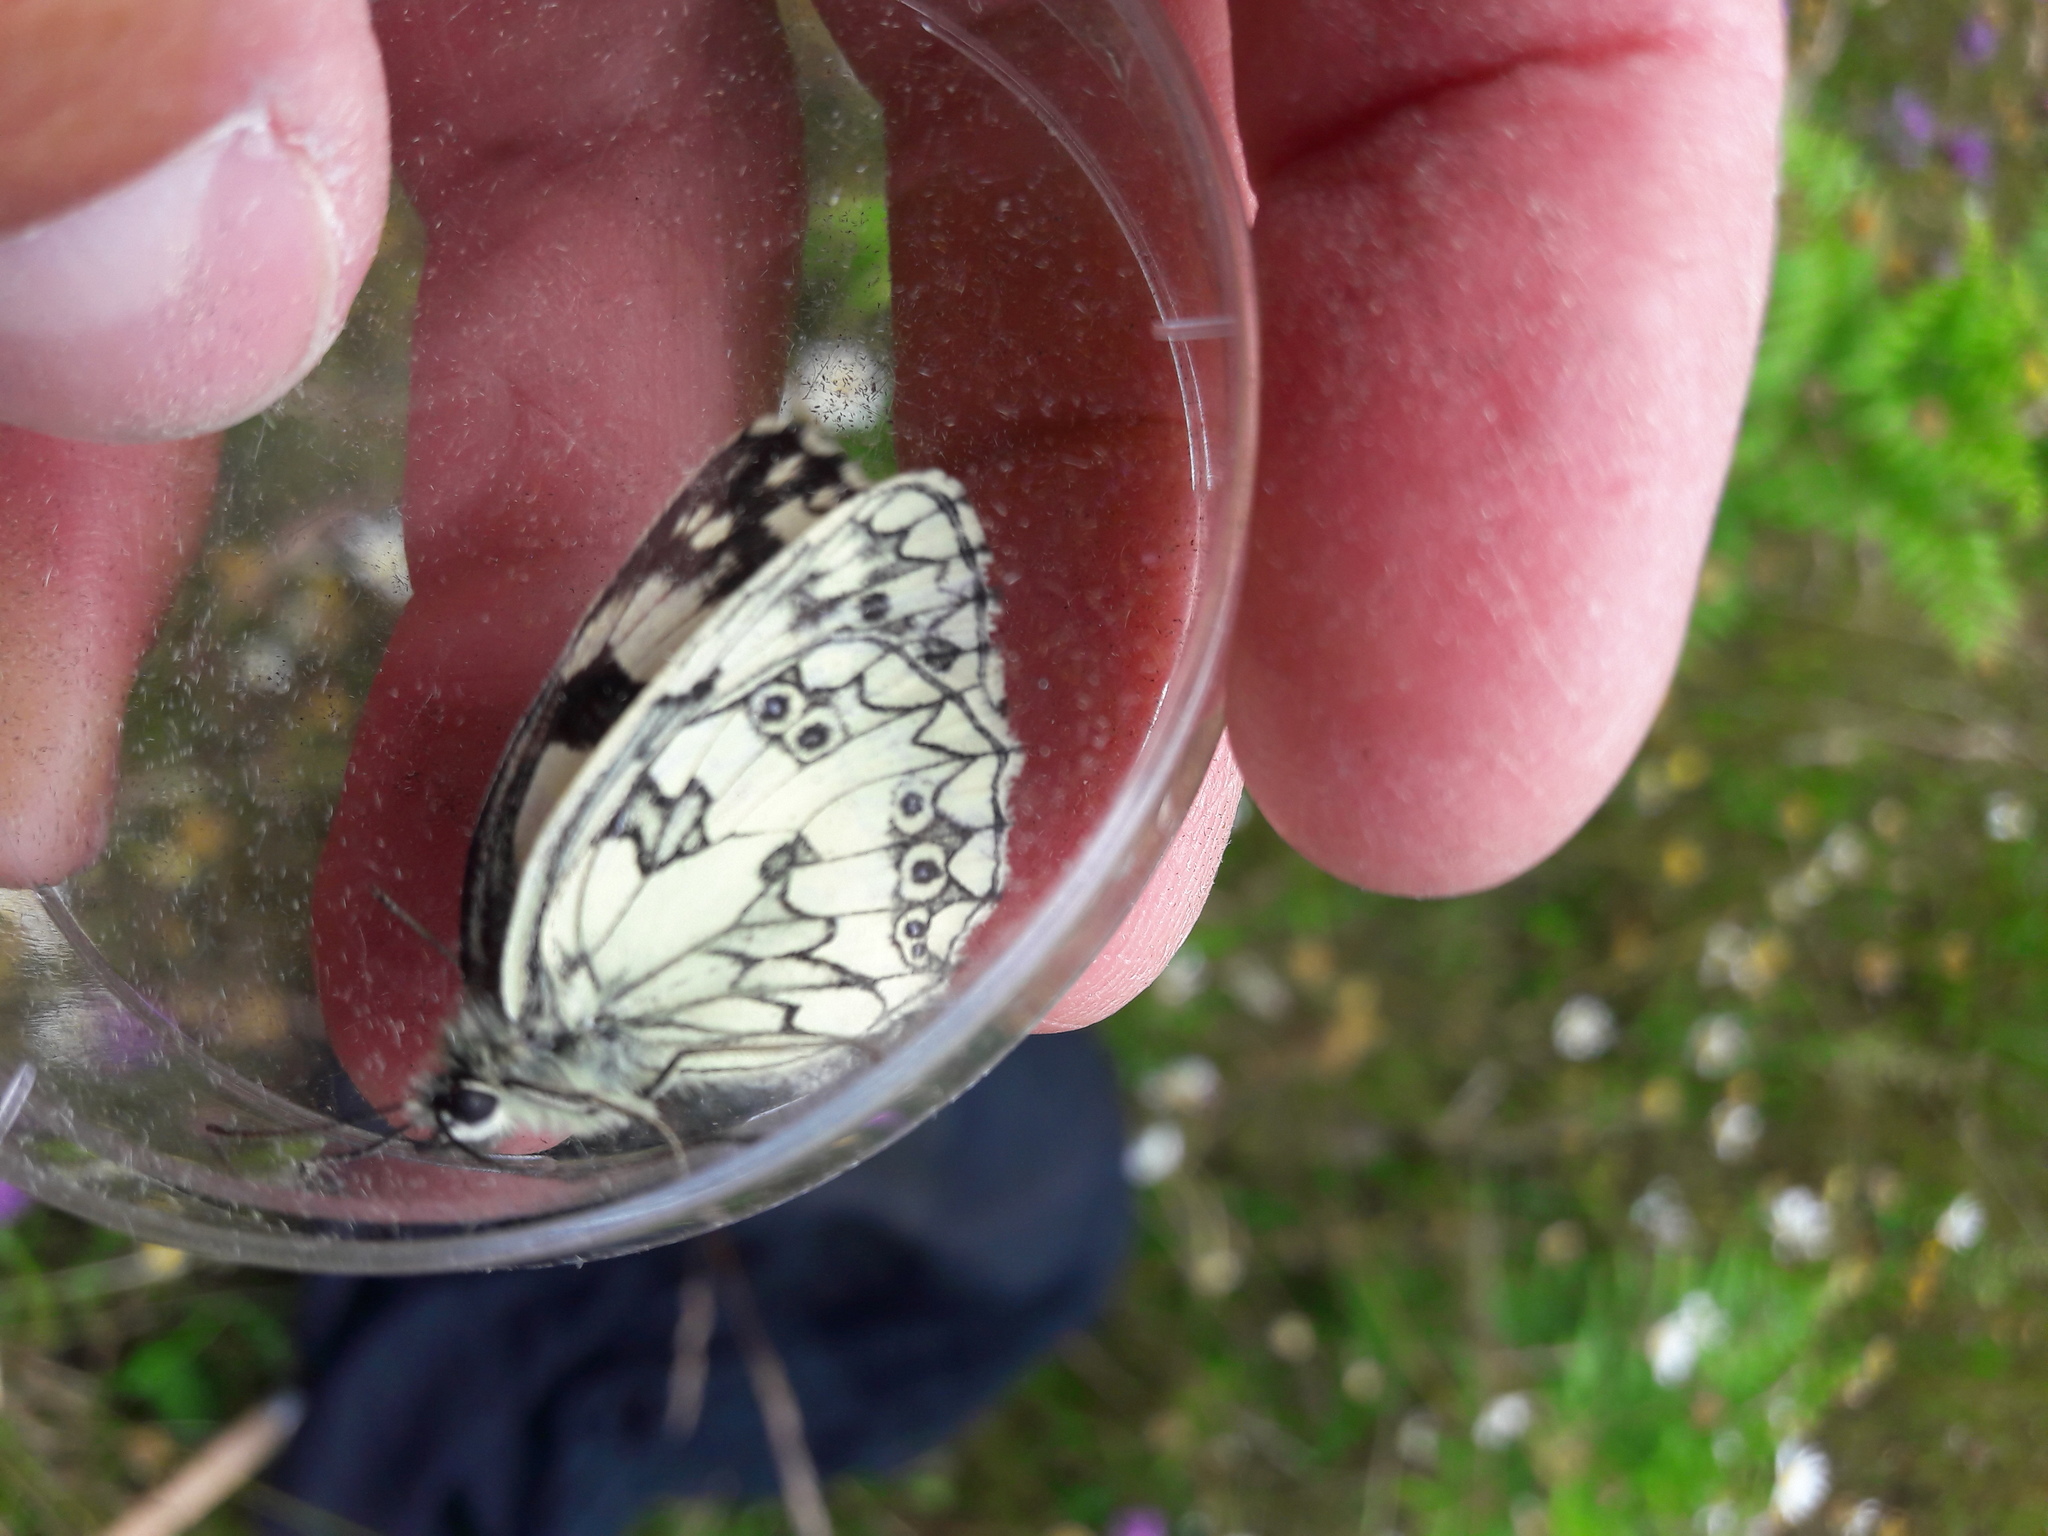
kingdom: Animalia
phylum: Arthropoda
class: Insecta
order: Lepidoptera
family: Nymphalidae
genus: Melanargia
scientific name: Melanargia galathea
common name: Marbled white
